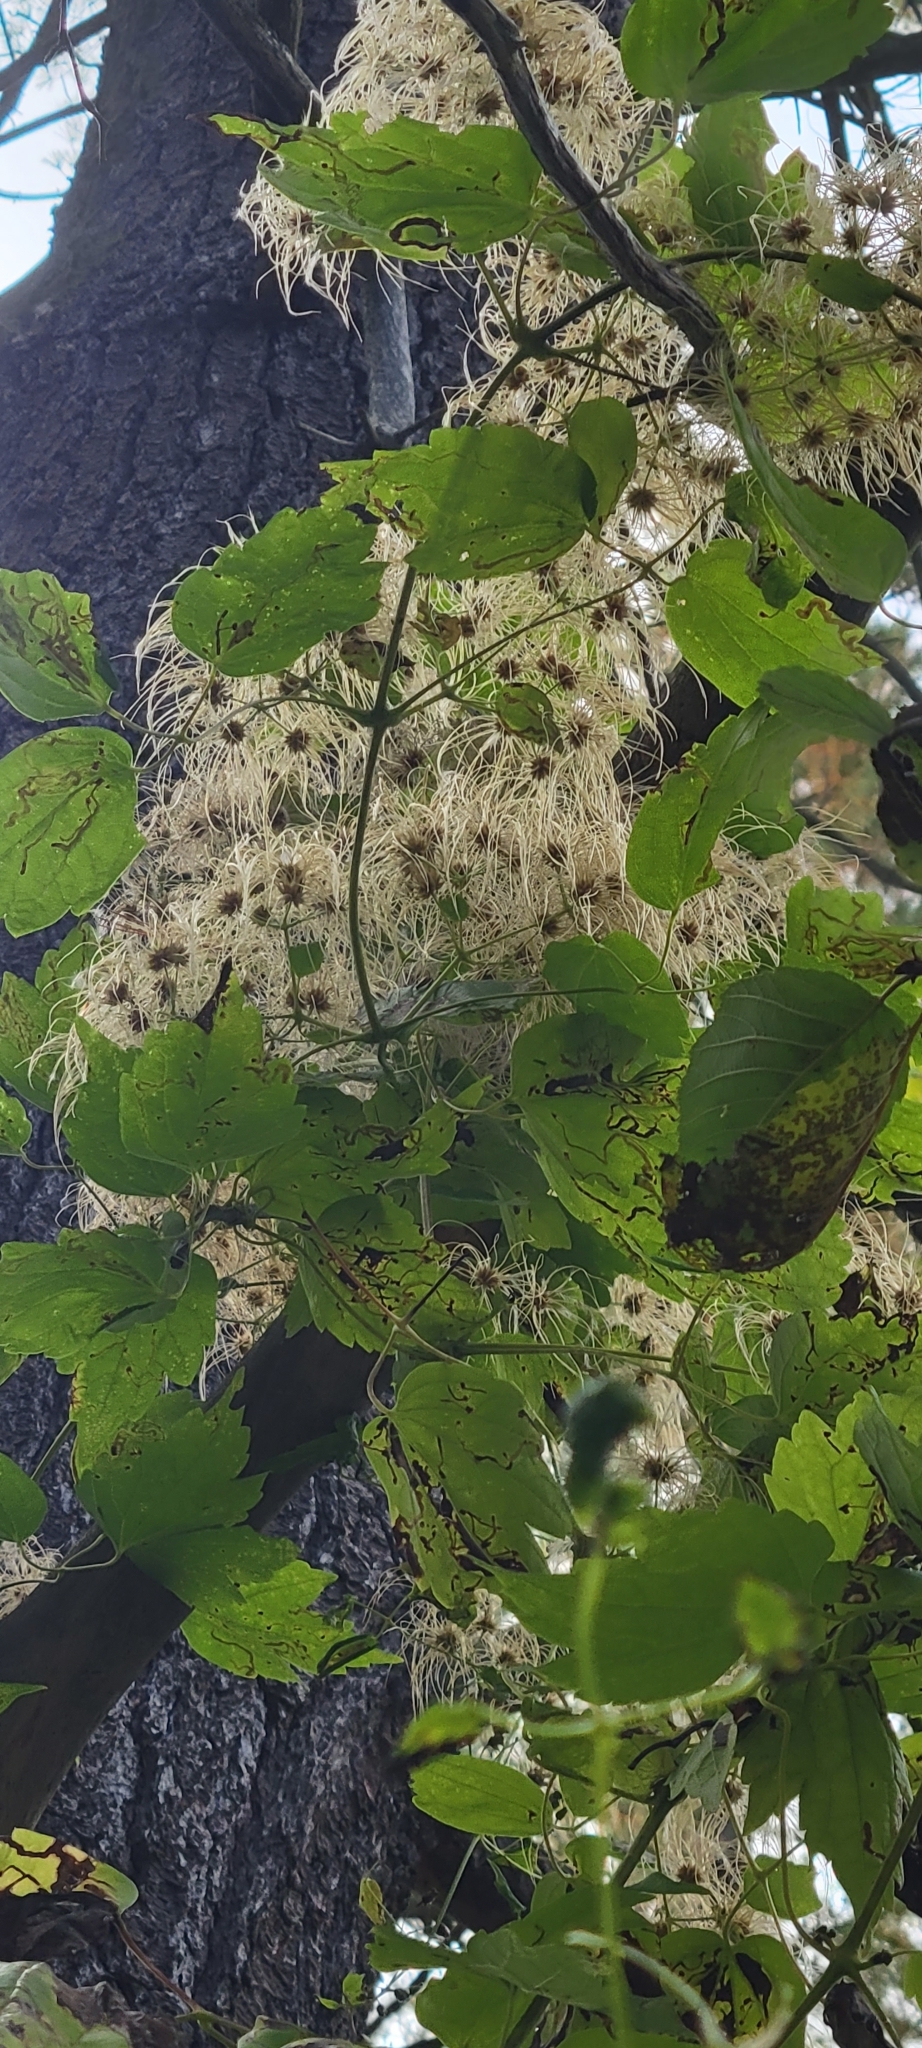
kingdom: Plantae
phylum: Tracheophyta
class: Magnoliopsida
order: Ranunculales
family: Ranunculaceae
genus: Clematis
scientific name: Clematis virginiana
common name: Virgin's-bower
